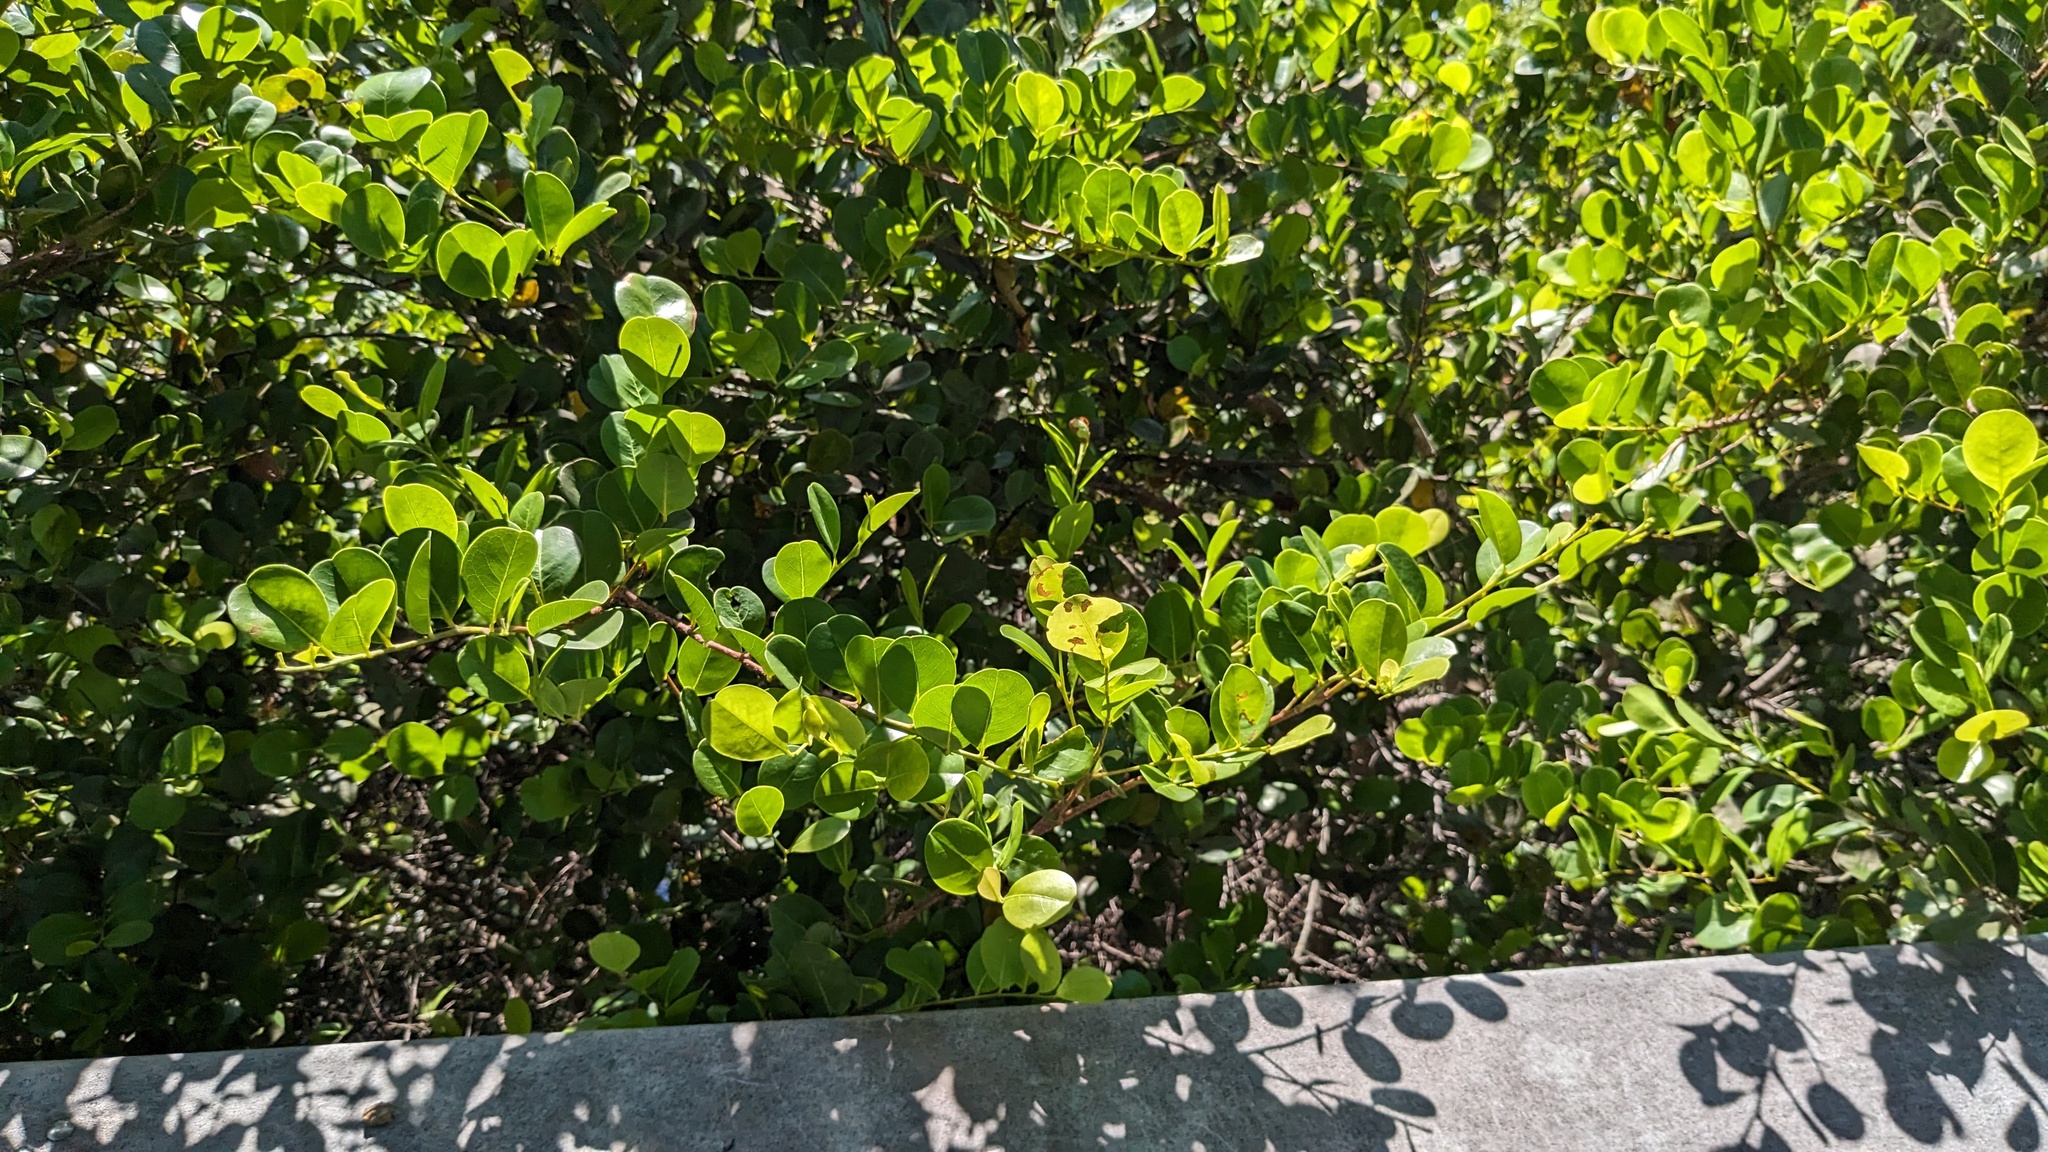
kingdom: Plantae
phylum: Tracheophyta
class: Magnoliopsida
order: Malpighiales
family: Chrysobalanaceae
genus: Chrysobalanus
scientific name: Chrysobalanus icaco
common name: Coco plum
